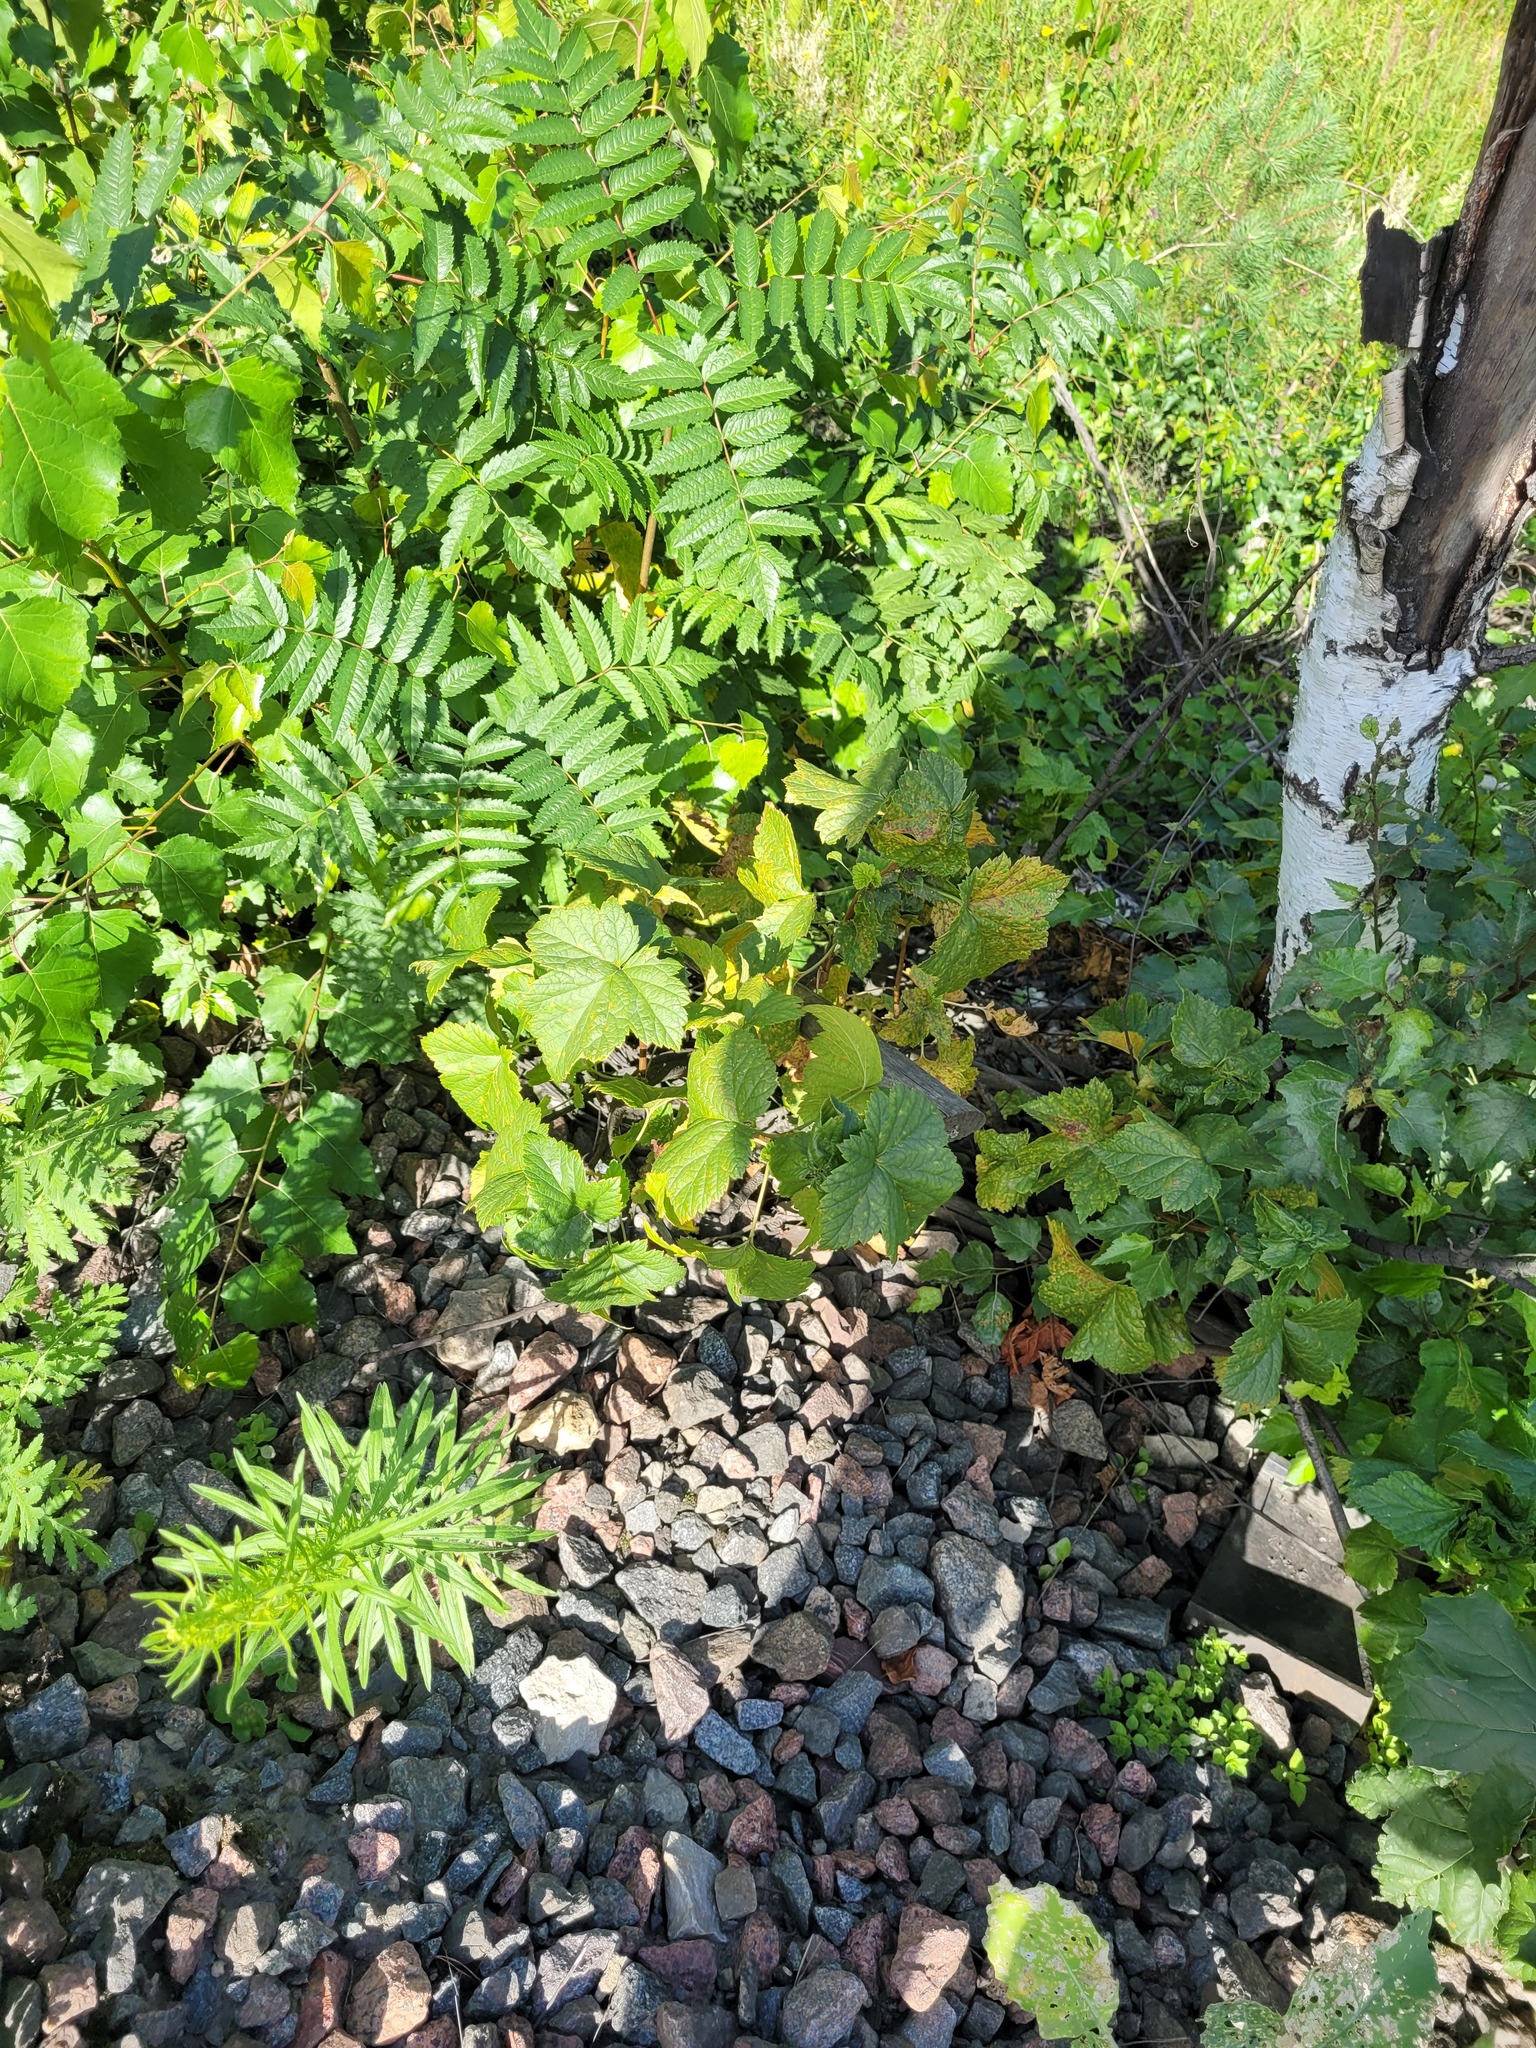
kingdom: Plantae
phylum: Tracheophyta
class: Magnoliopsida
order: Saxifragales
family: Grossulariaceae
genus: Ribes
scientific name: Ribes nigrum
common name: Black currant
